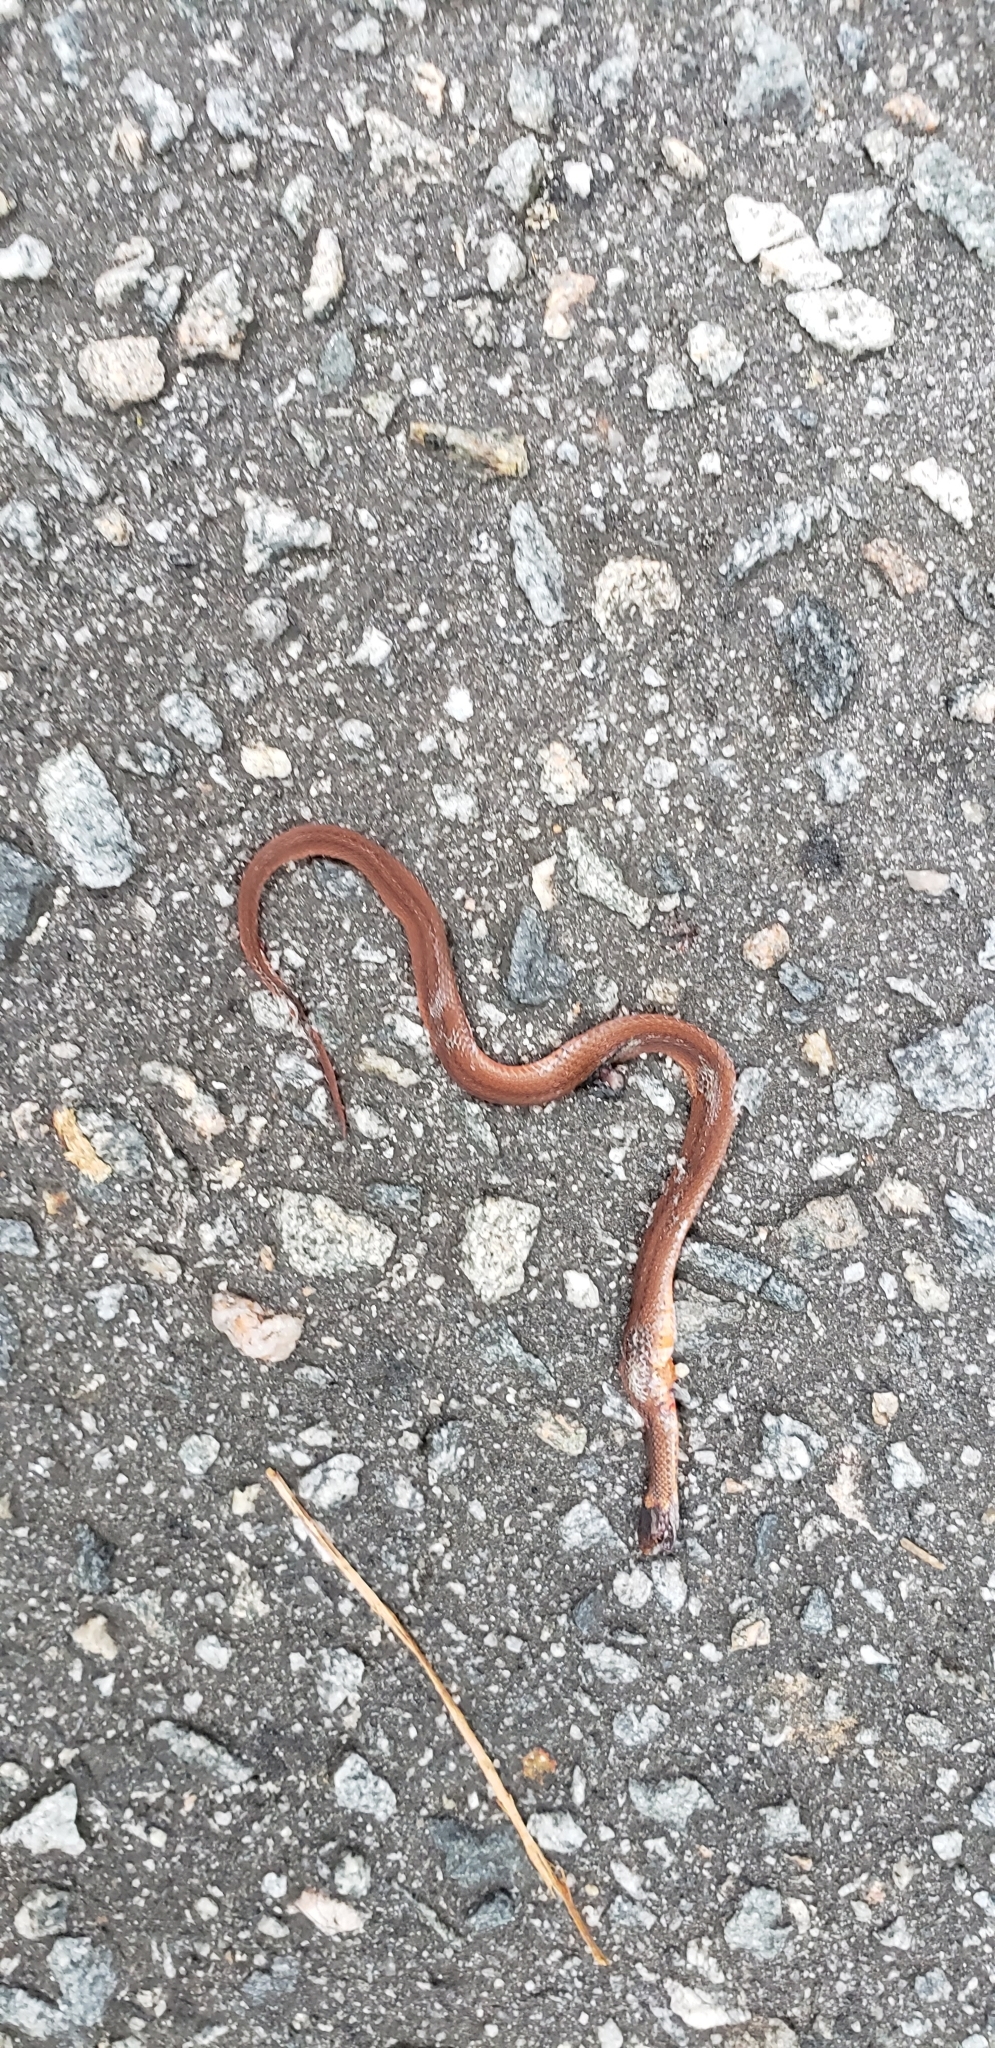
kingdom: Animalia
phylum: Chordata
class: Squamata
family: Colubridae
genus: Storeria
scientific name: Storeria occipitomaculata
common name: Redbelly snake
